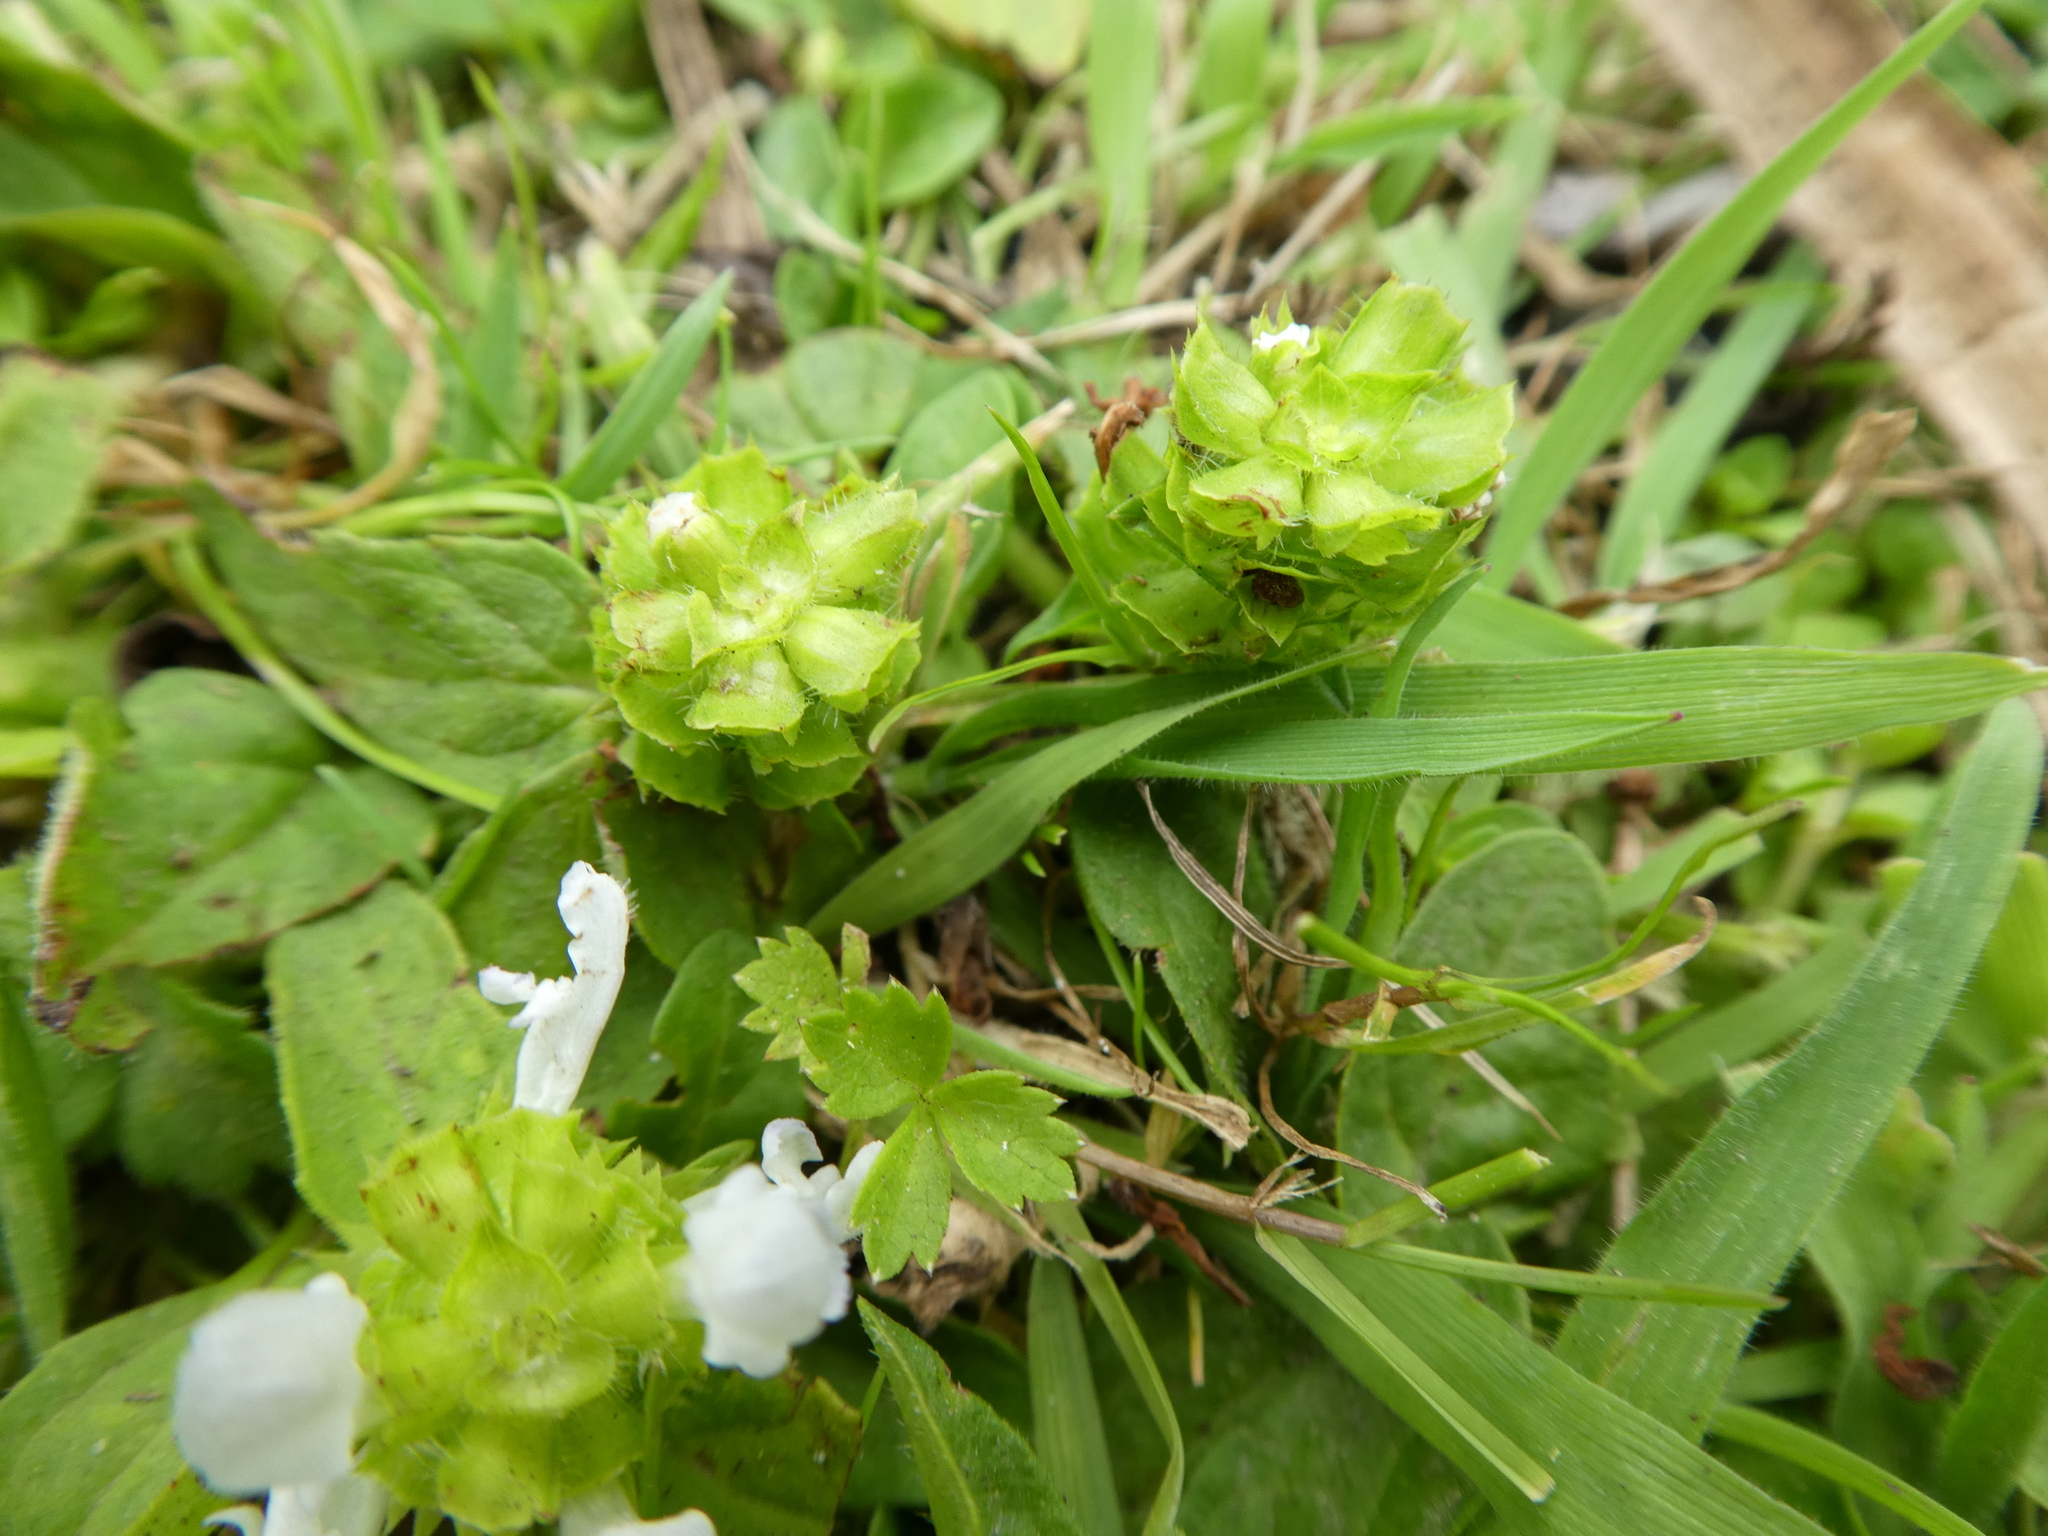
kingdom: Plantae
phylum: Tracheophyta
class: Magnoliopsida
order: Lamiales
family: Lamiaceae
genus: Prunella
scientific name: Prunella vulgaris
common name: Heal-all
